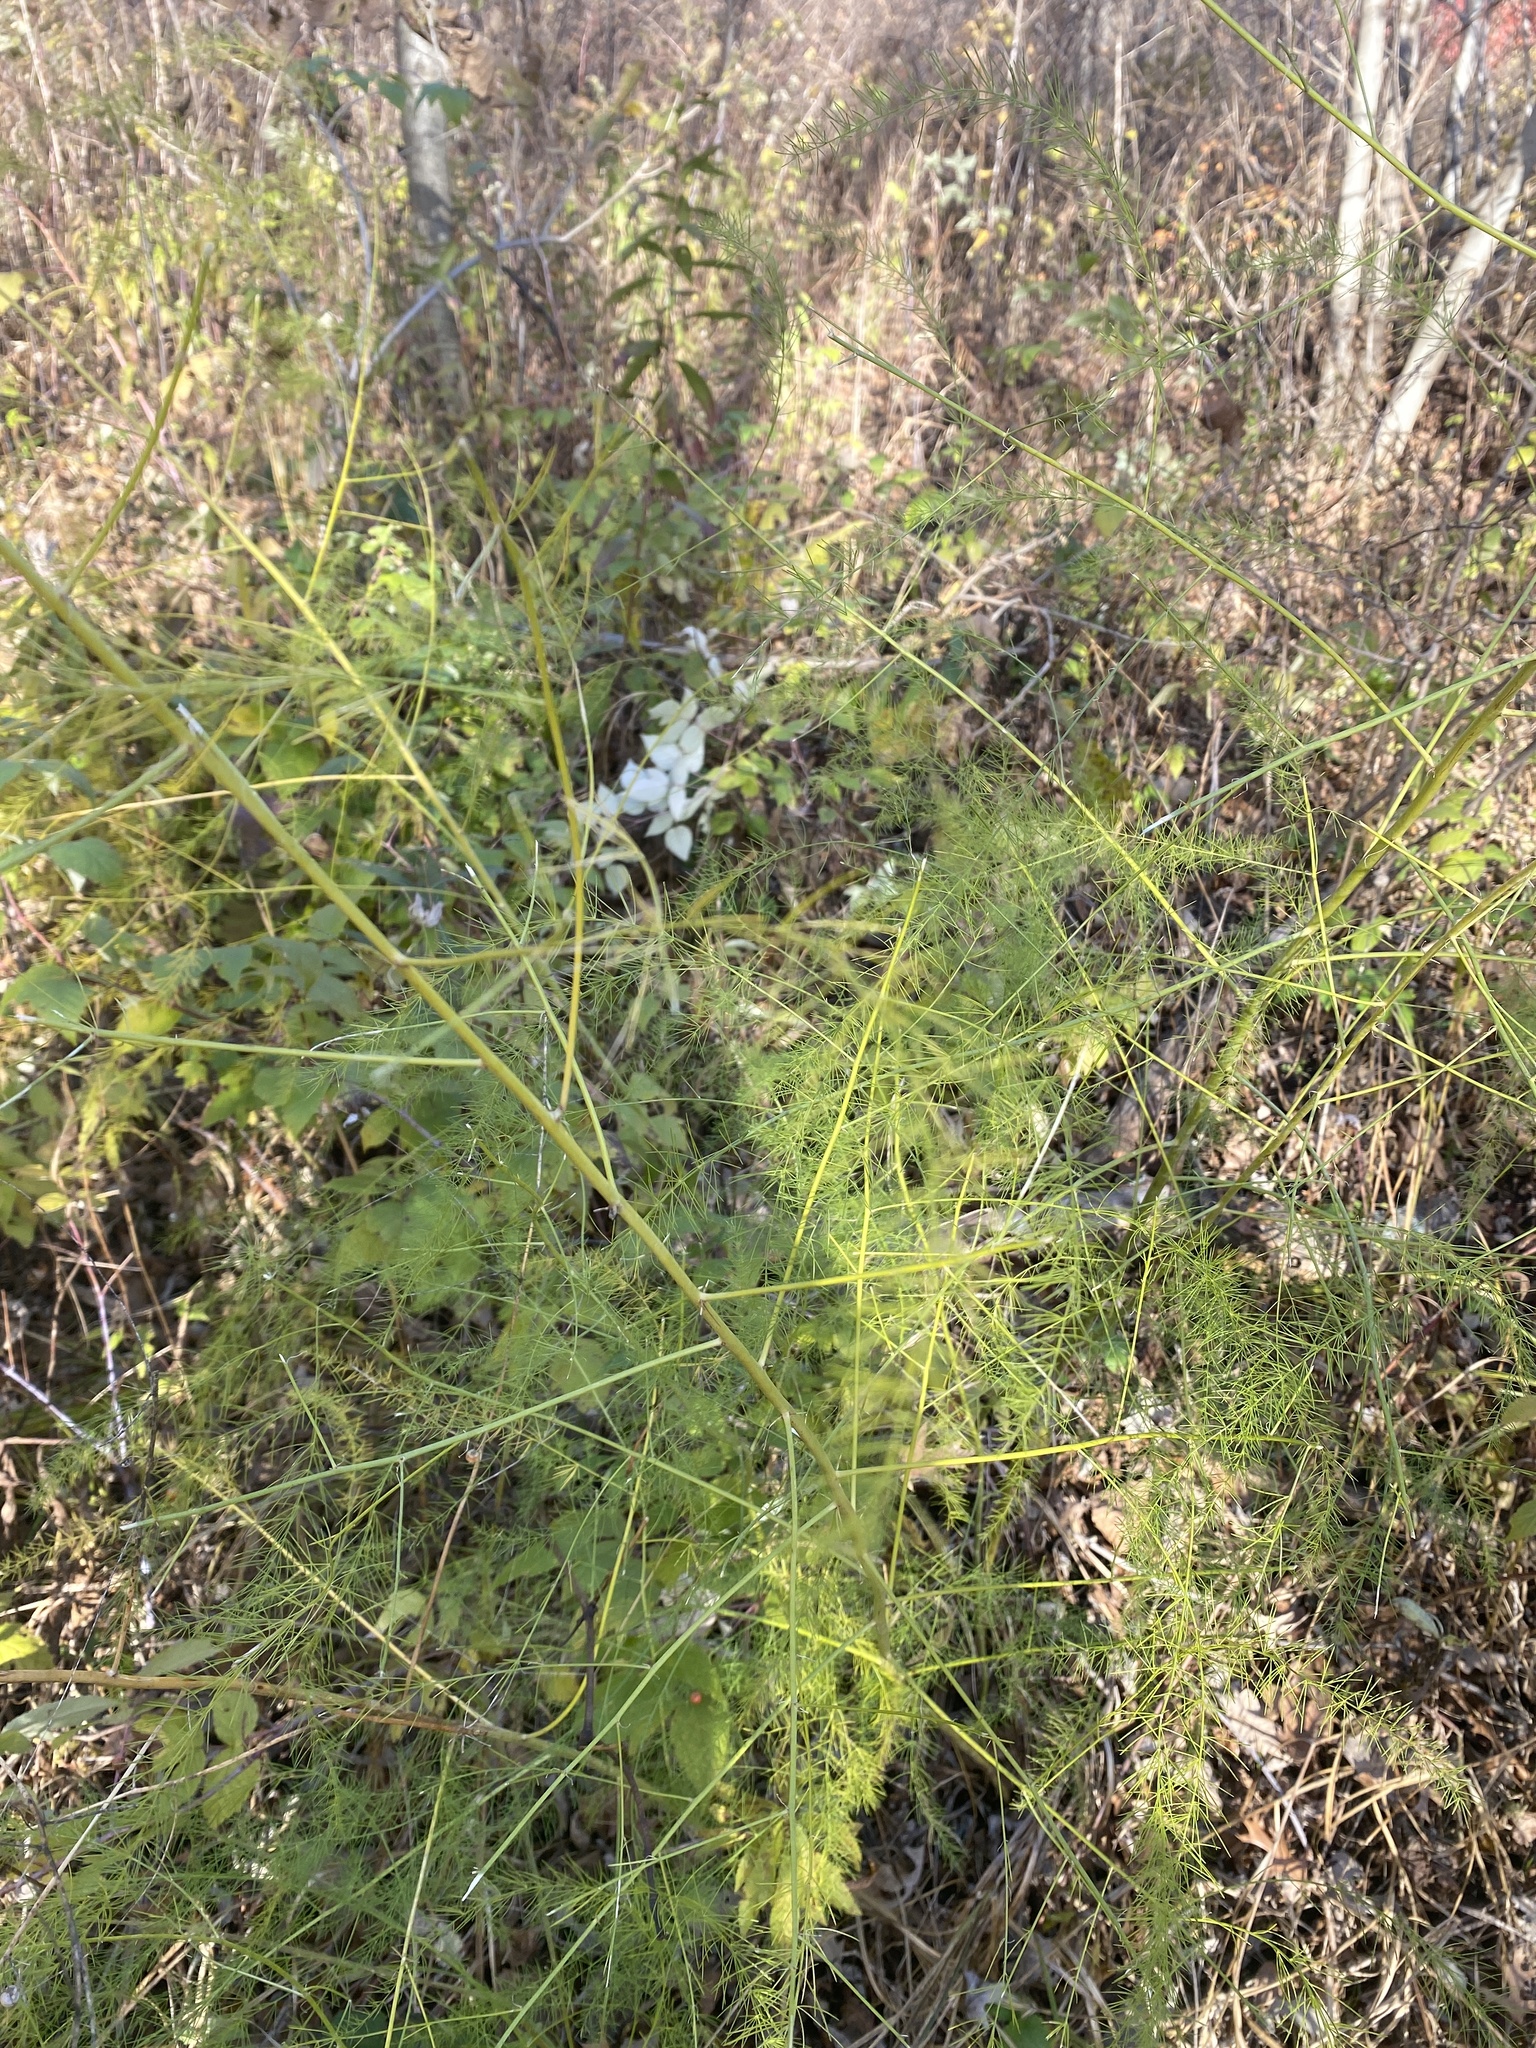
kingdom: Plantae
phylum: Tracheophyta
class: Liliopsida
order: Asparagales
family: Asparagaceae
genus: Asparagus
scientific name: Asparagus officinalis
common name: Garden asparagus
